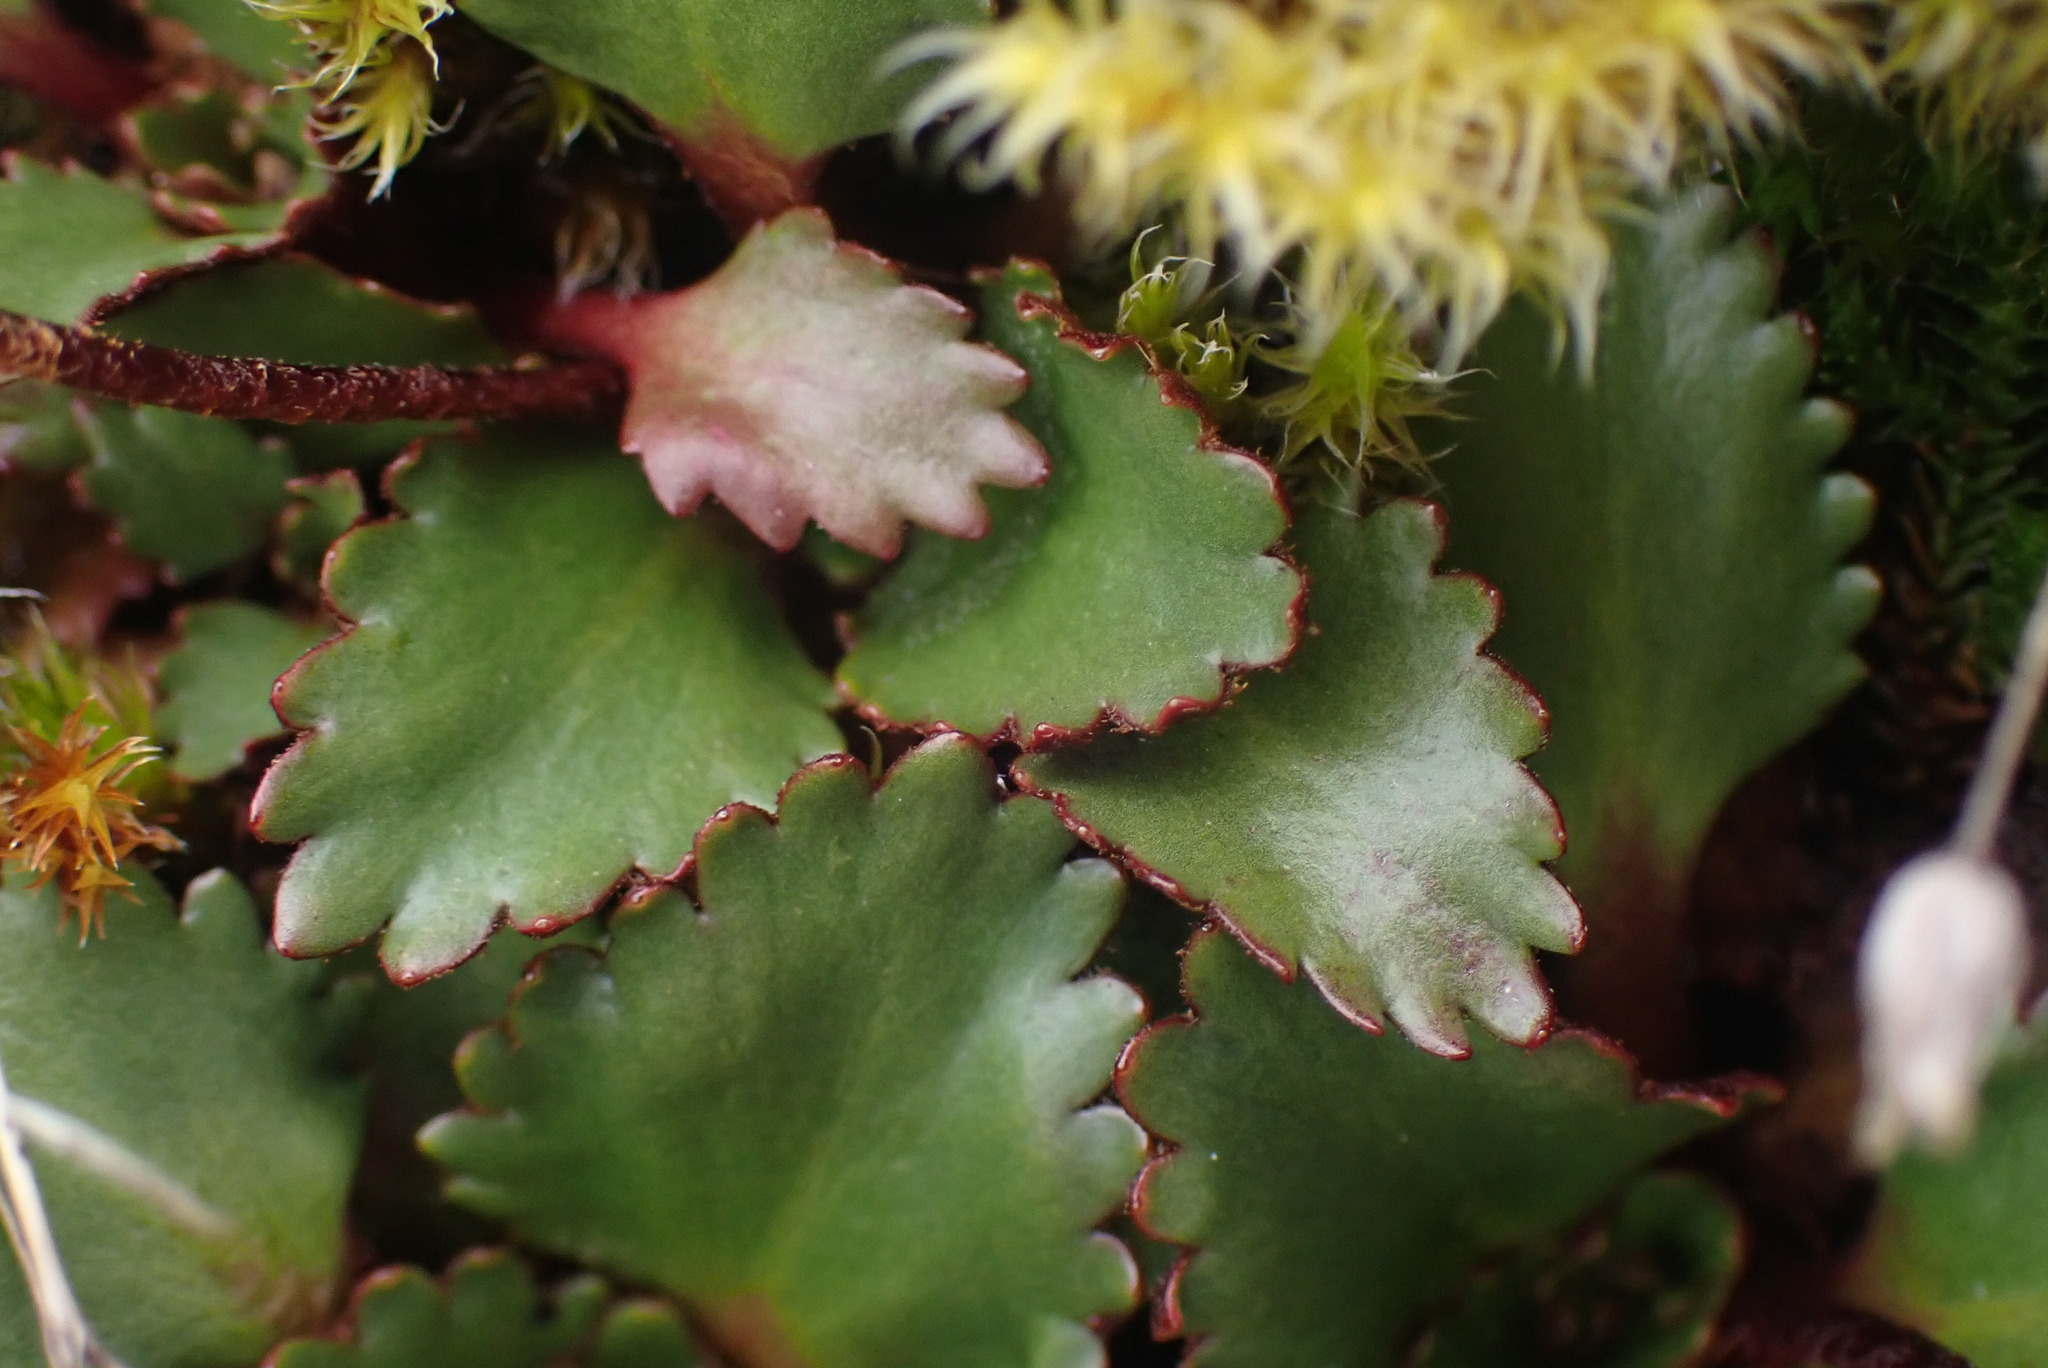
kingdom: Plantae
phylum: Tracheophyta
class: Magnoliopsida
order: Saxifragales
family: Saxifragaceae
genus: Micranthes
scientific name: Micranthes rufidula
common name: Rustyhair saxifrage
